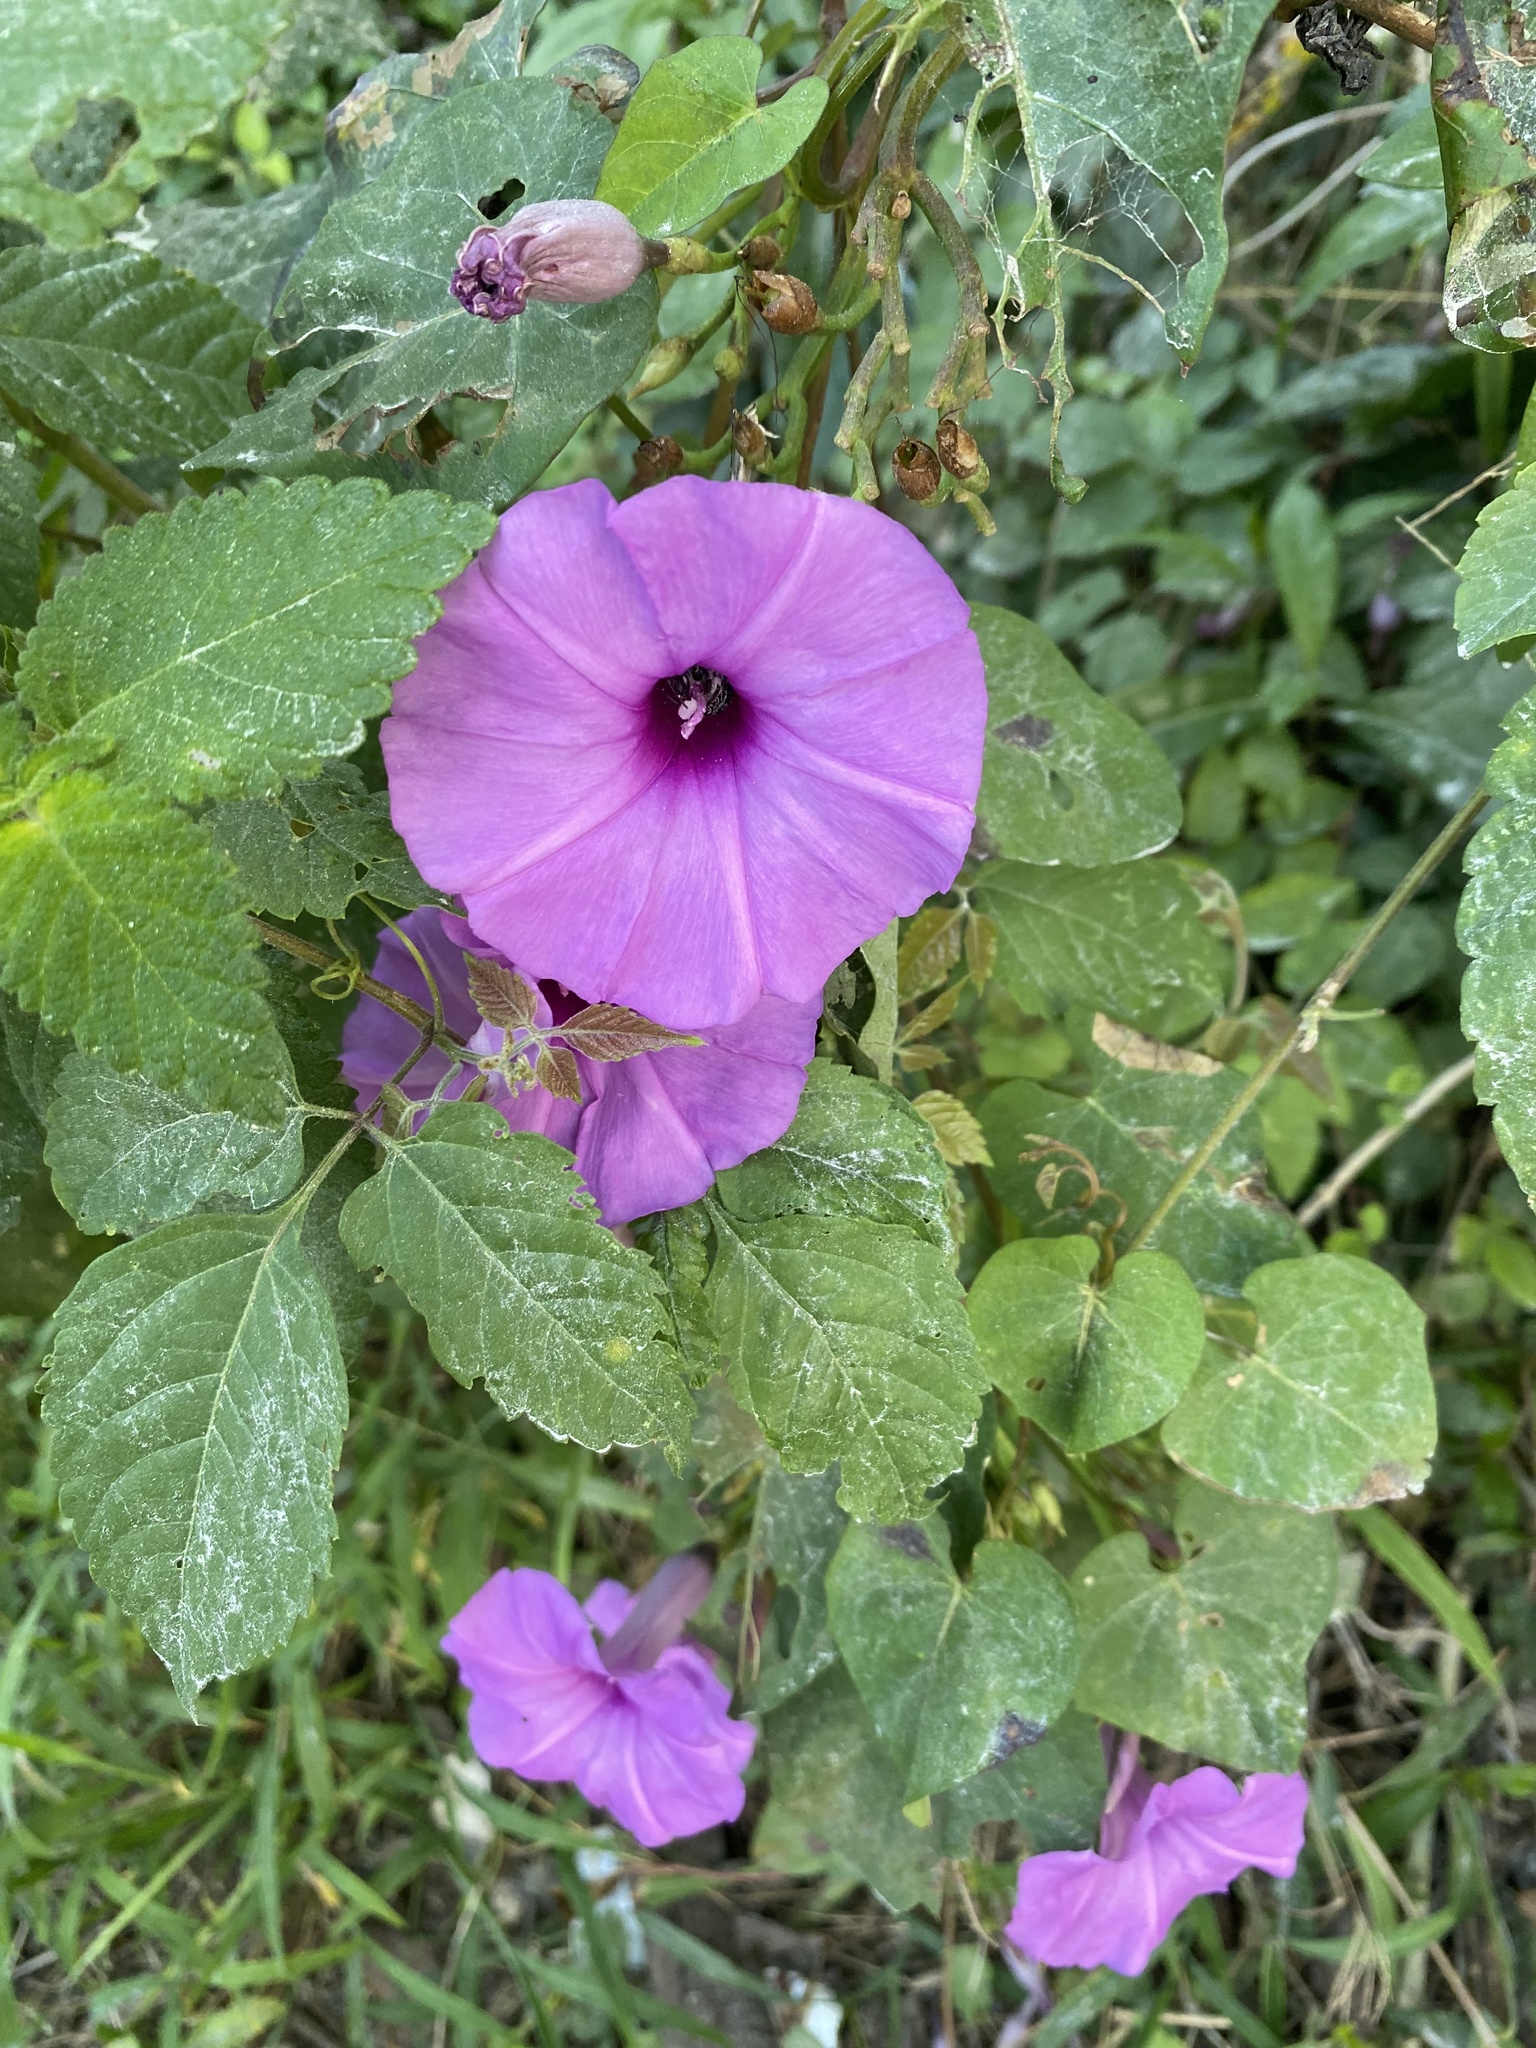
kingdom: Plantae
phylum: Tracheophyta
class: Magnoliopsida
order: Solanales
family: Convolvulaceae
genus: Ipomoea
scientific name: Ipomoea splendor-sylvae
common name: Morning glory
